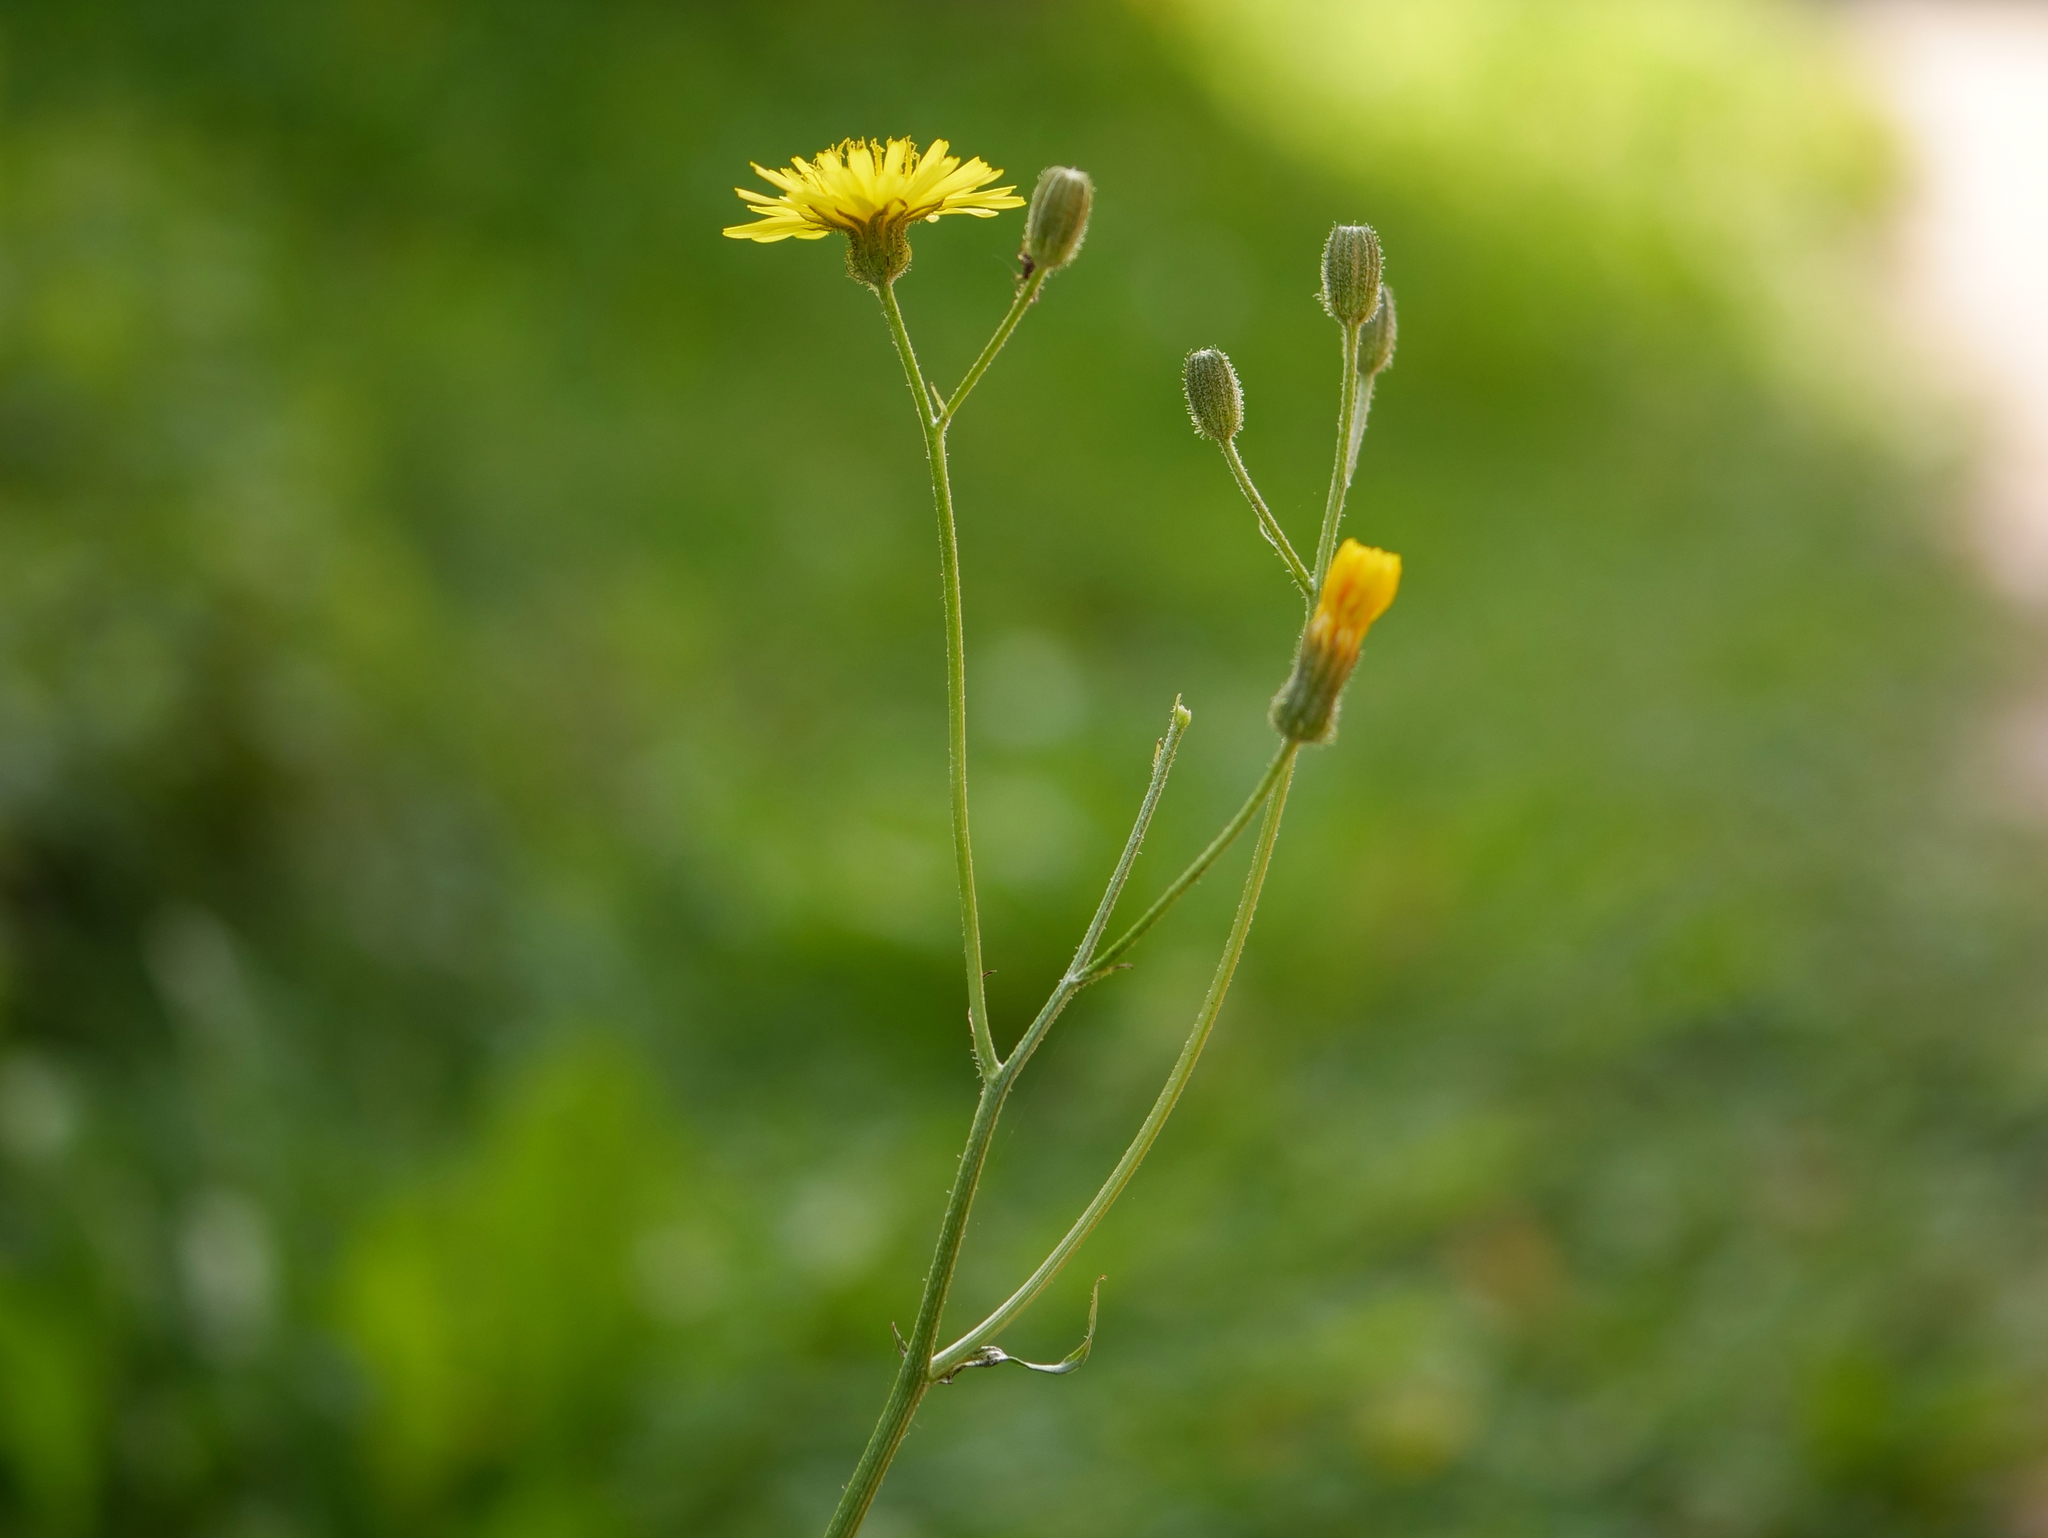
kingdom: Plantae
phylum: Tracheophyta
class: Magnoliopsida
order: Asterales
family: Asteraceae
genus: Crepis
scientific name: Crepis capillaris
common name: Smooth hawksbeard
